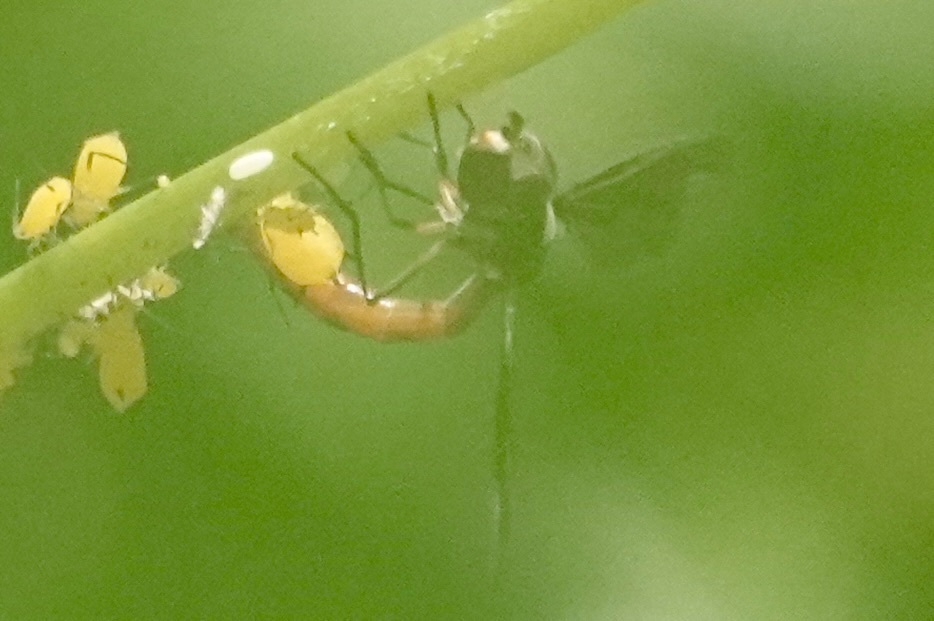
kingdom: Animalia
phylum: Arthropoda
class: Insecta
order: Diptera
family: Syrphidae
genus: Ocyptamus
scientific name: Ocyptamus fuscipennis
